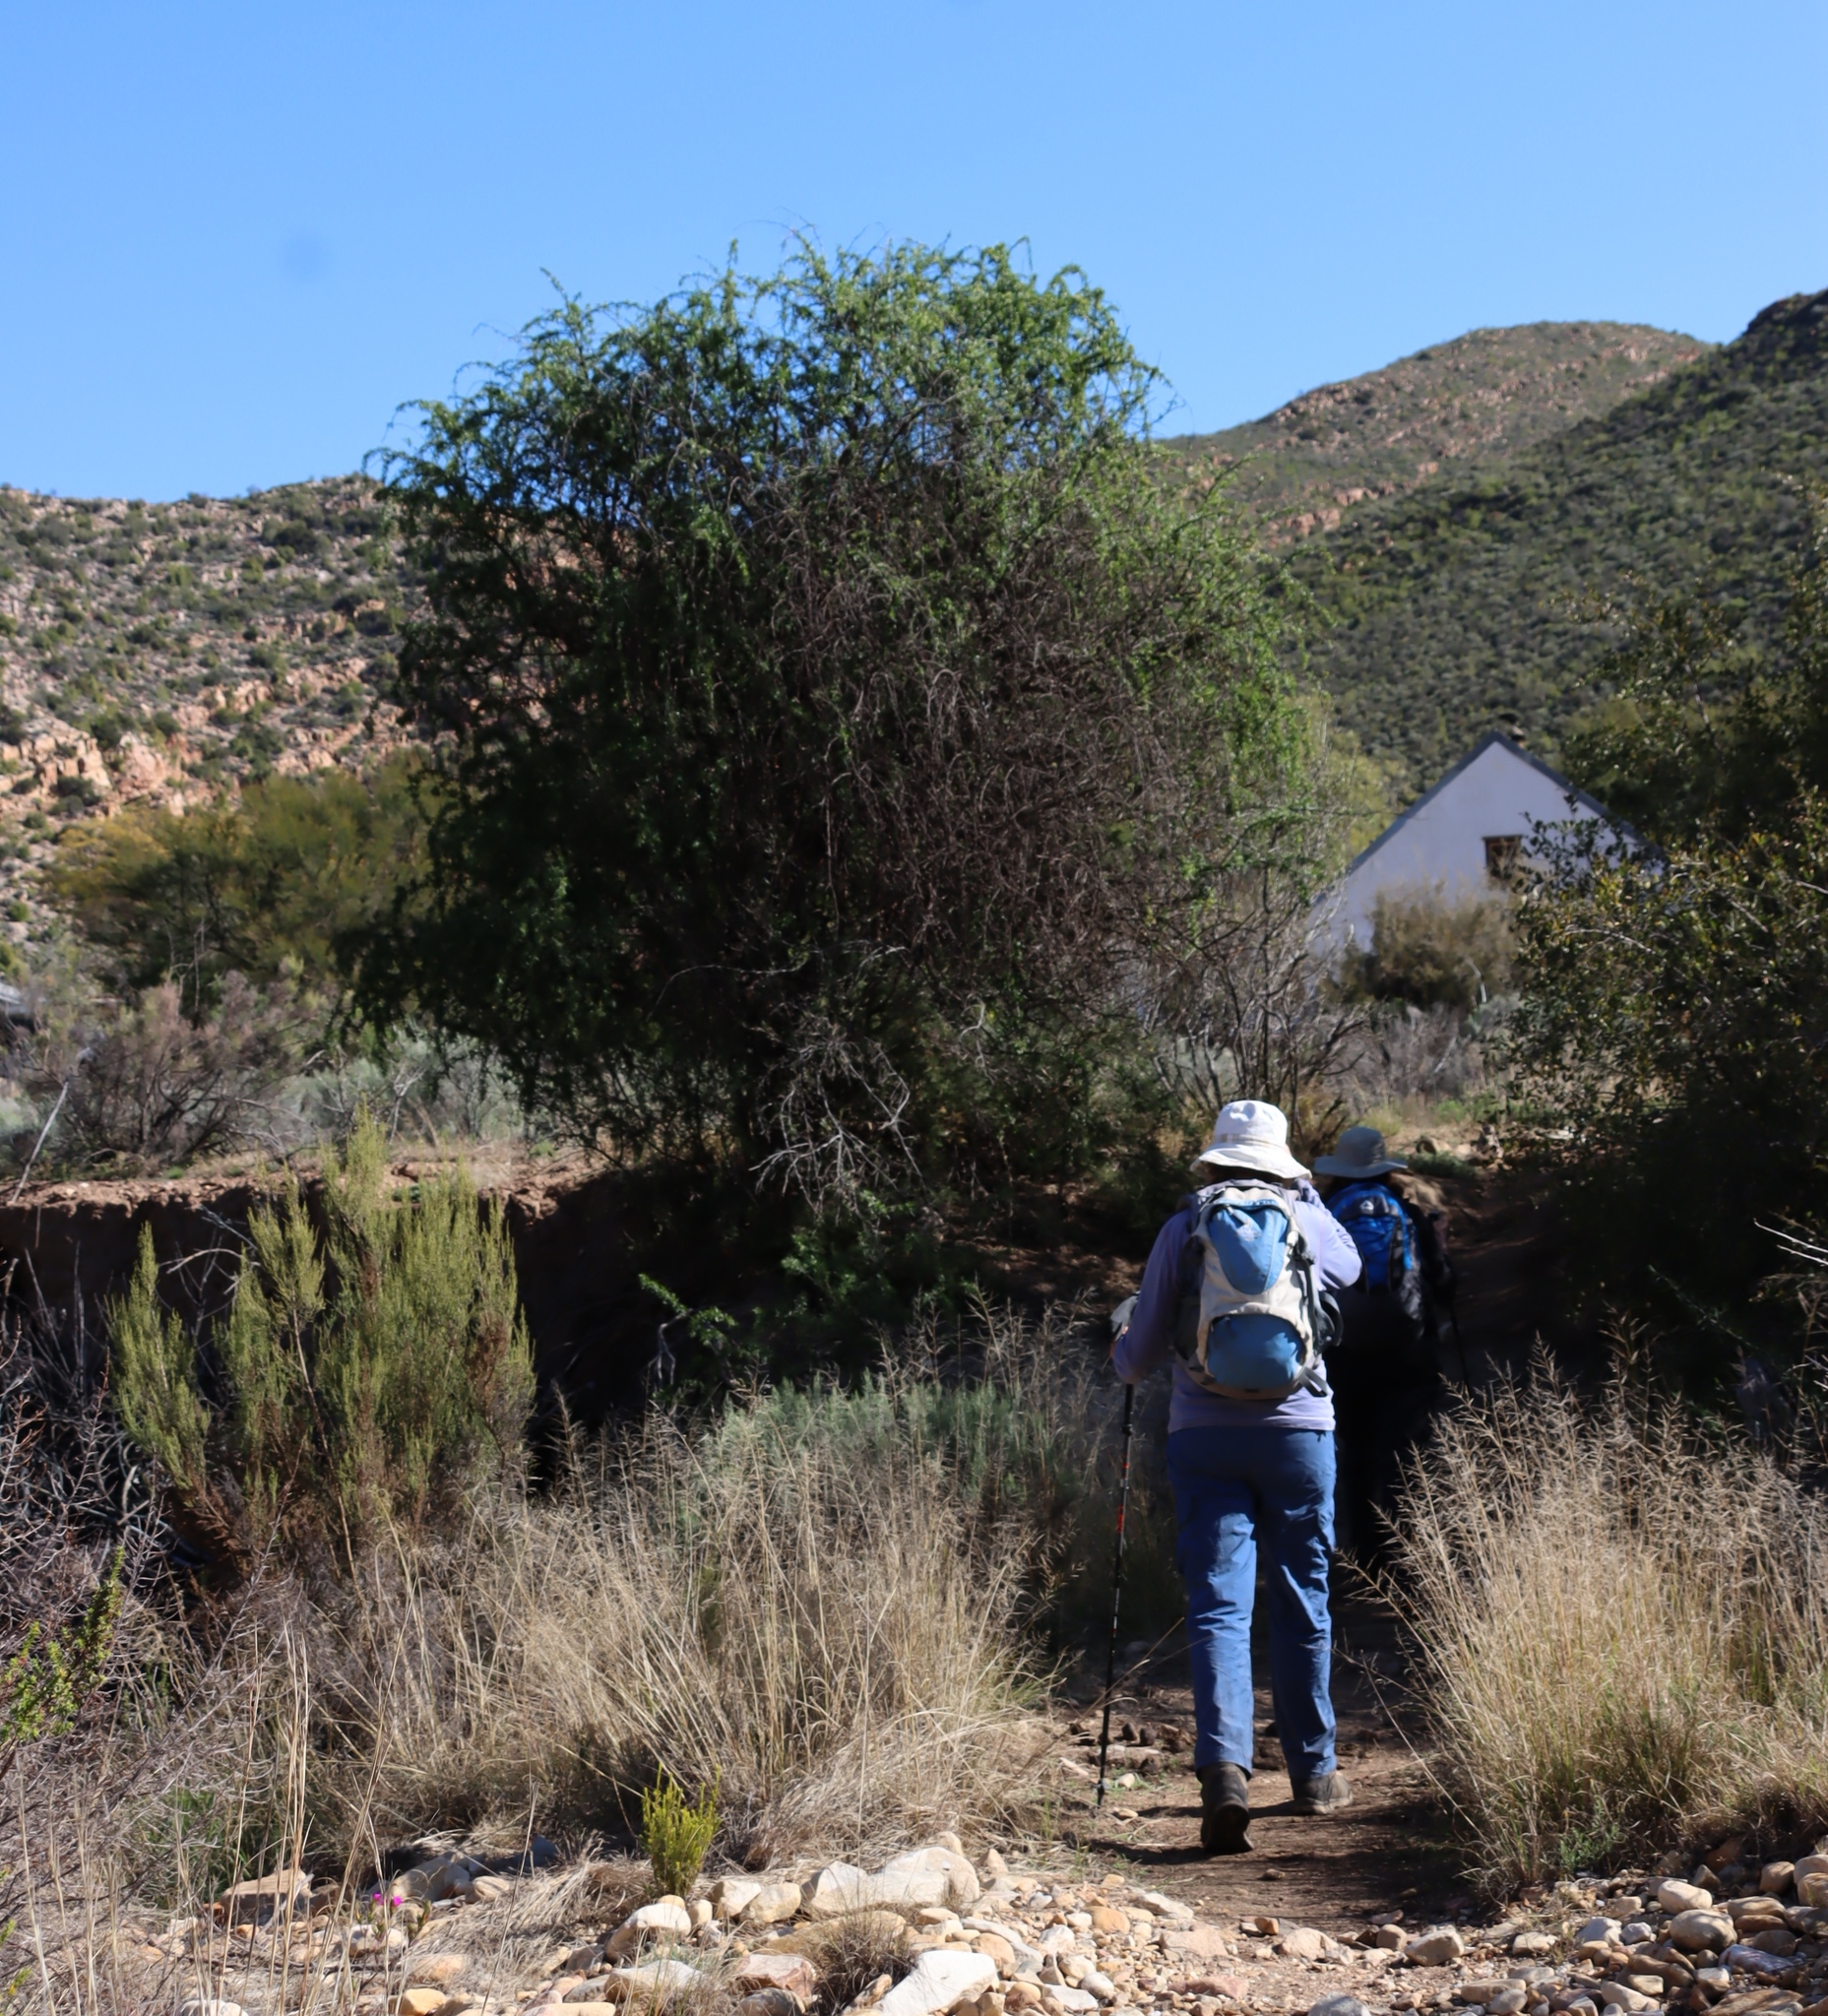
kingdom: Plantae
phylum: Tracheophyta
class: Magnoliopsida
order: Solanales
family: Solanaceae
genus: Lycium
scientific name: Lycium oxycarpum
